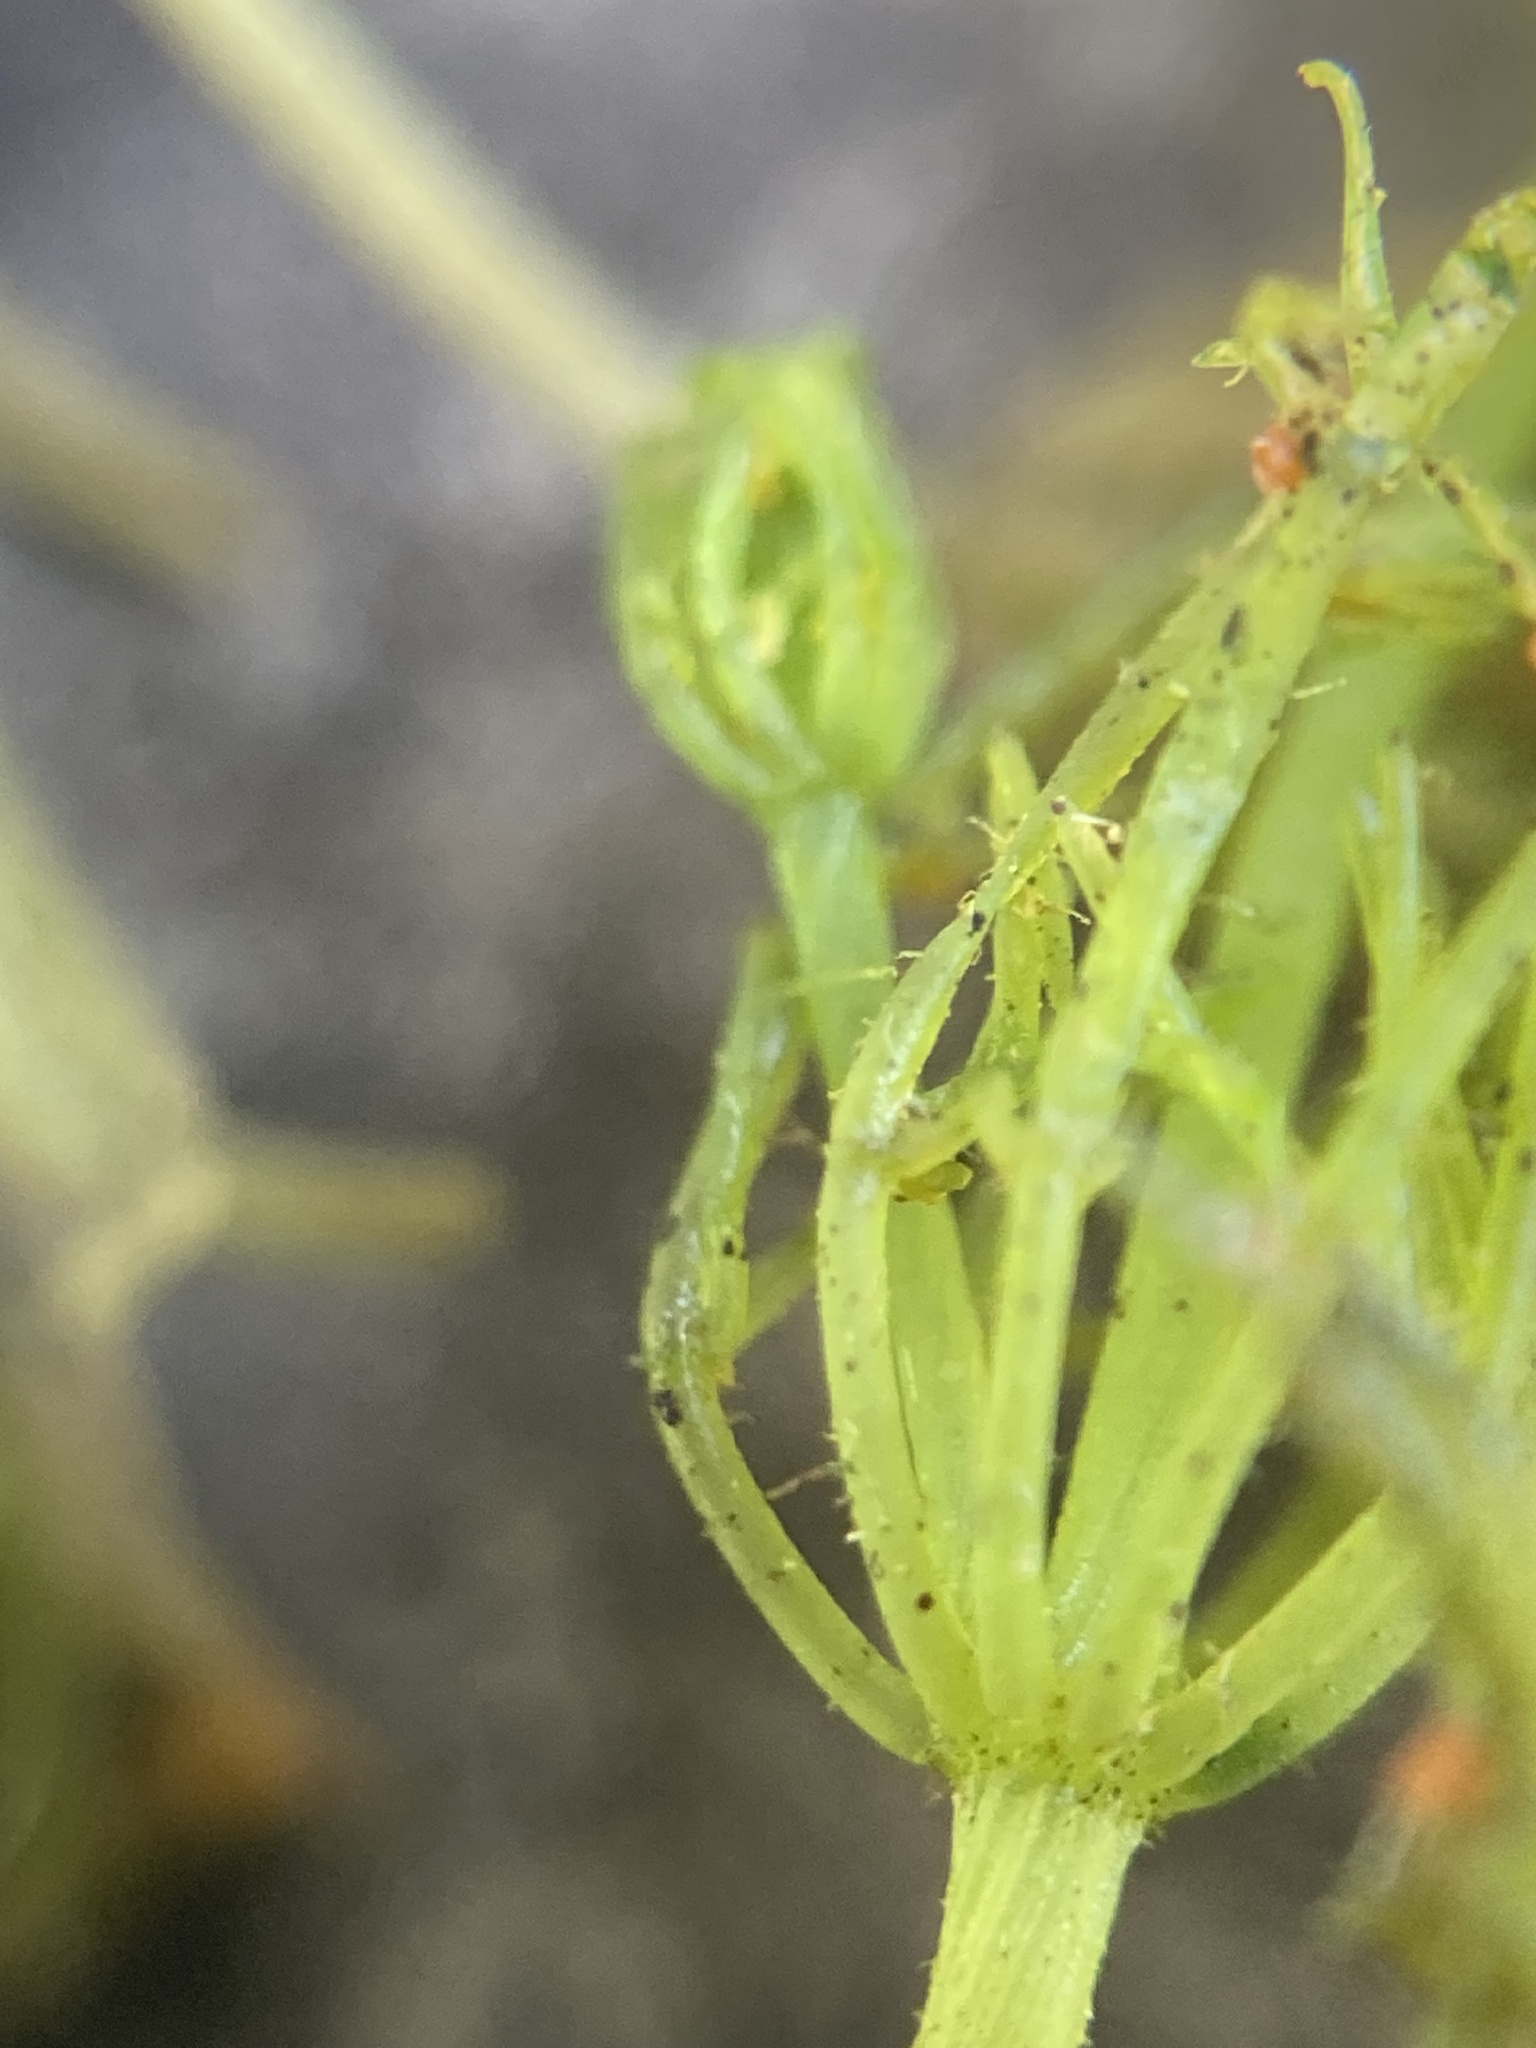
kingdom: Plantae
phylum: Charophyta
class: Charophyceae
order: Charales
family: Characeae
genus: Chara
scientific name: Chara vulgaris
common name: Common stonewort
